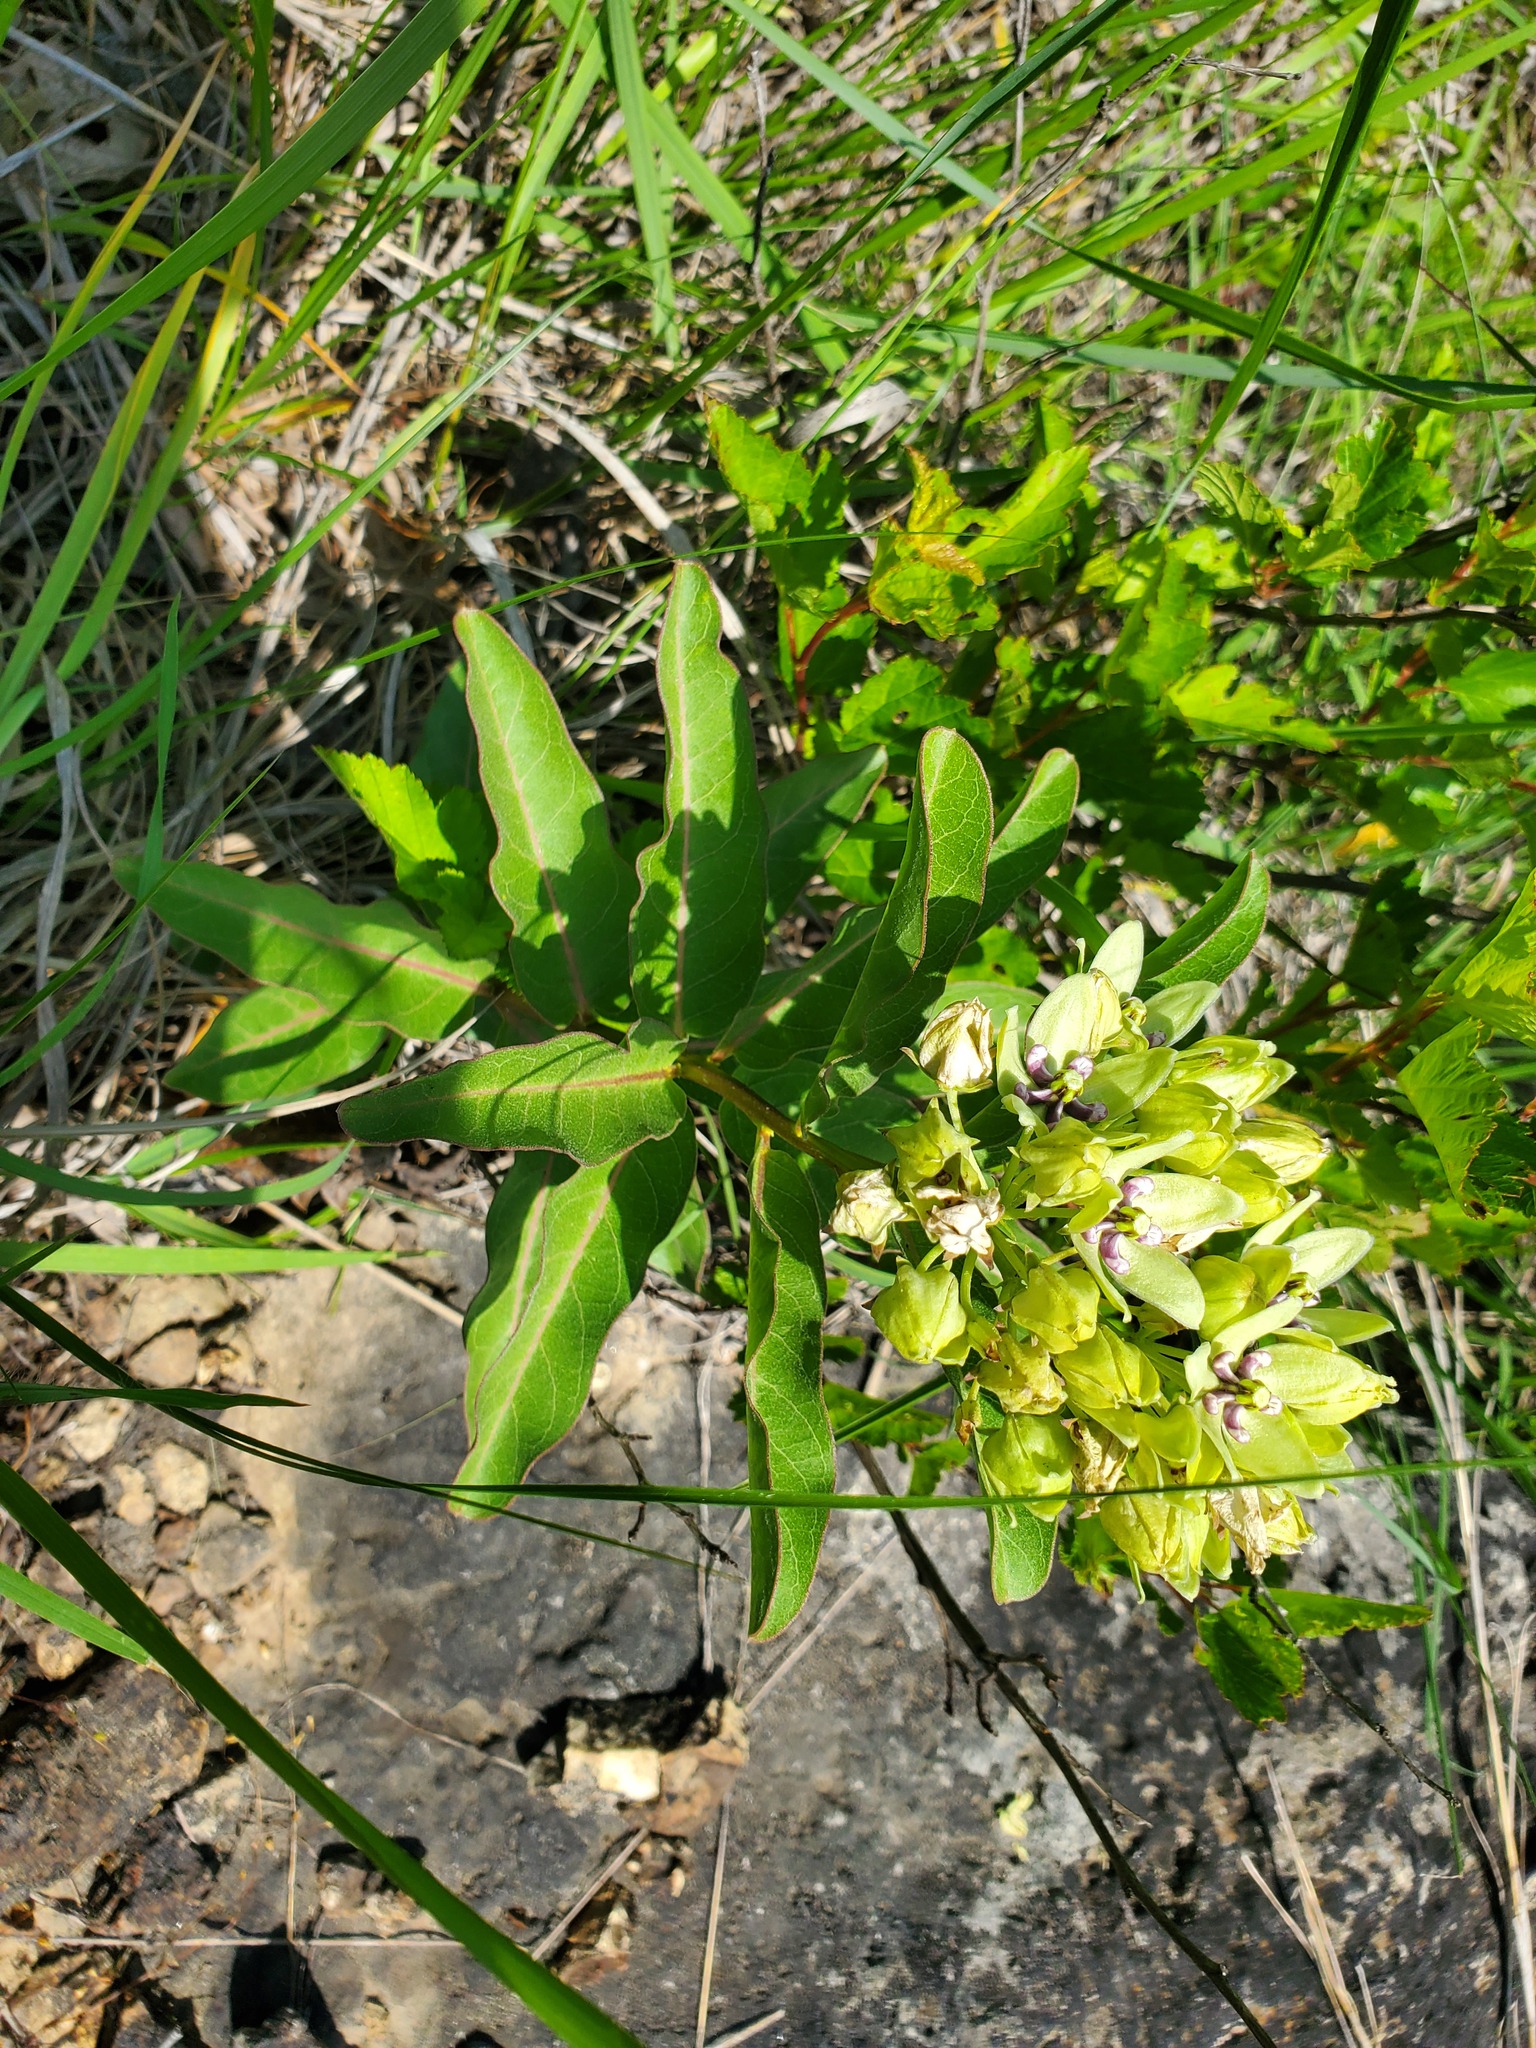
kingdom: Plantae
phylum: Tracheophyta
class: Magnoliopsida
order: Gentianales
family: Apocynaceae
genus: Asclepias
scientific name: Asclepias viridis
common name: Antelope-horns
